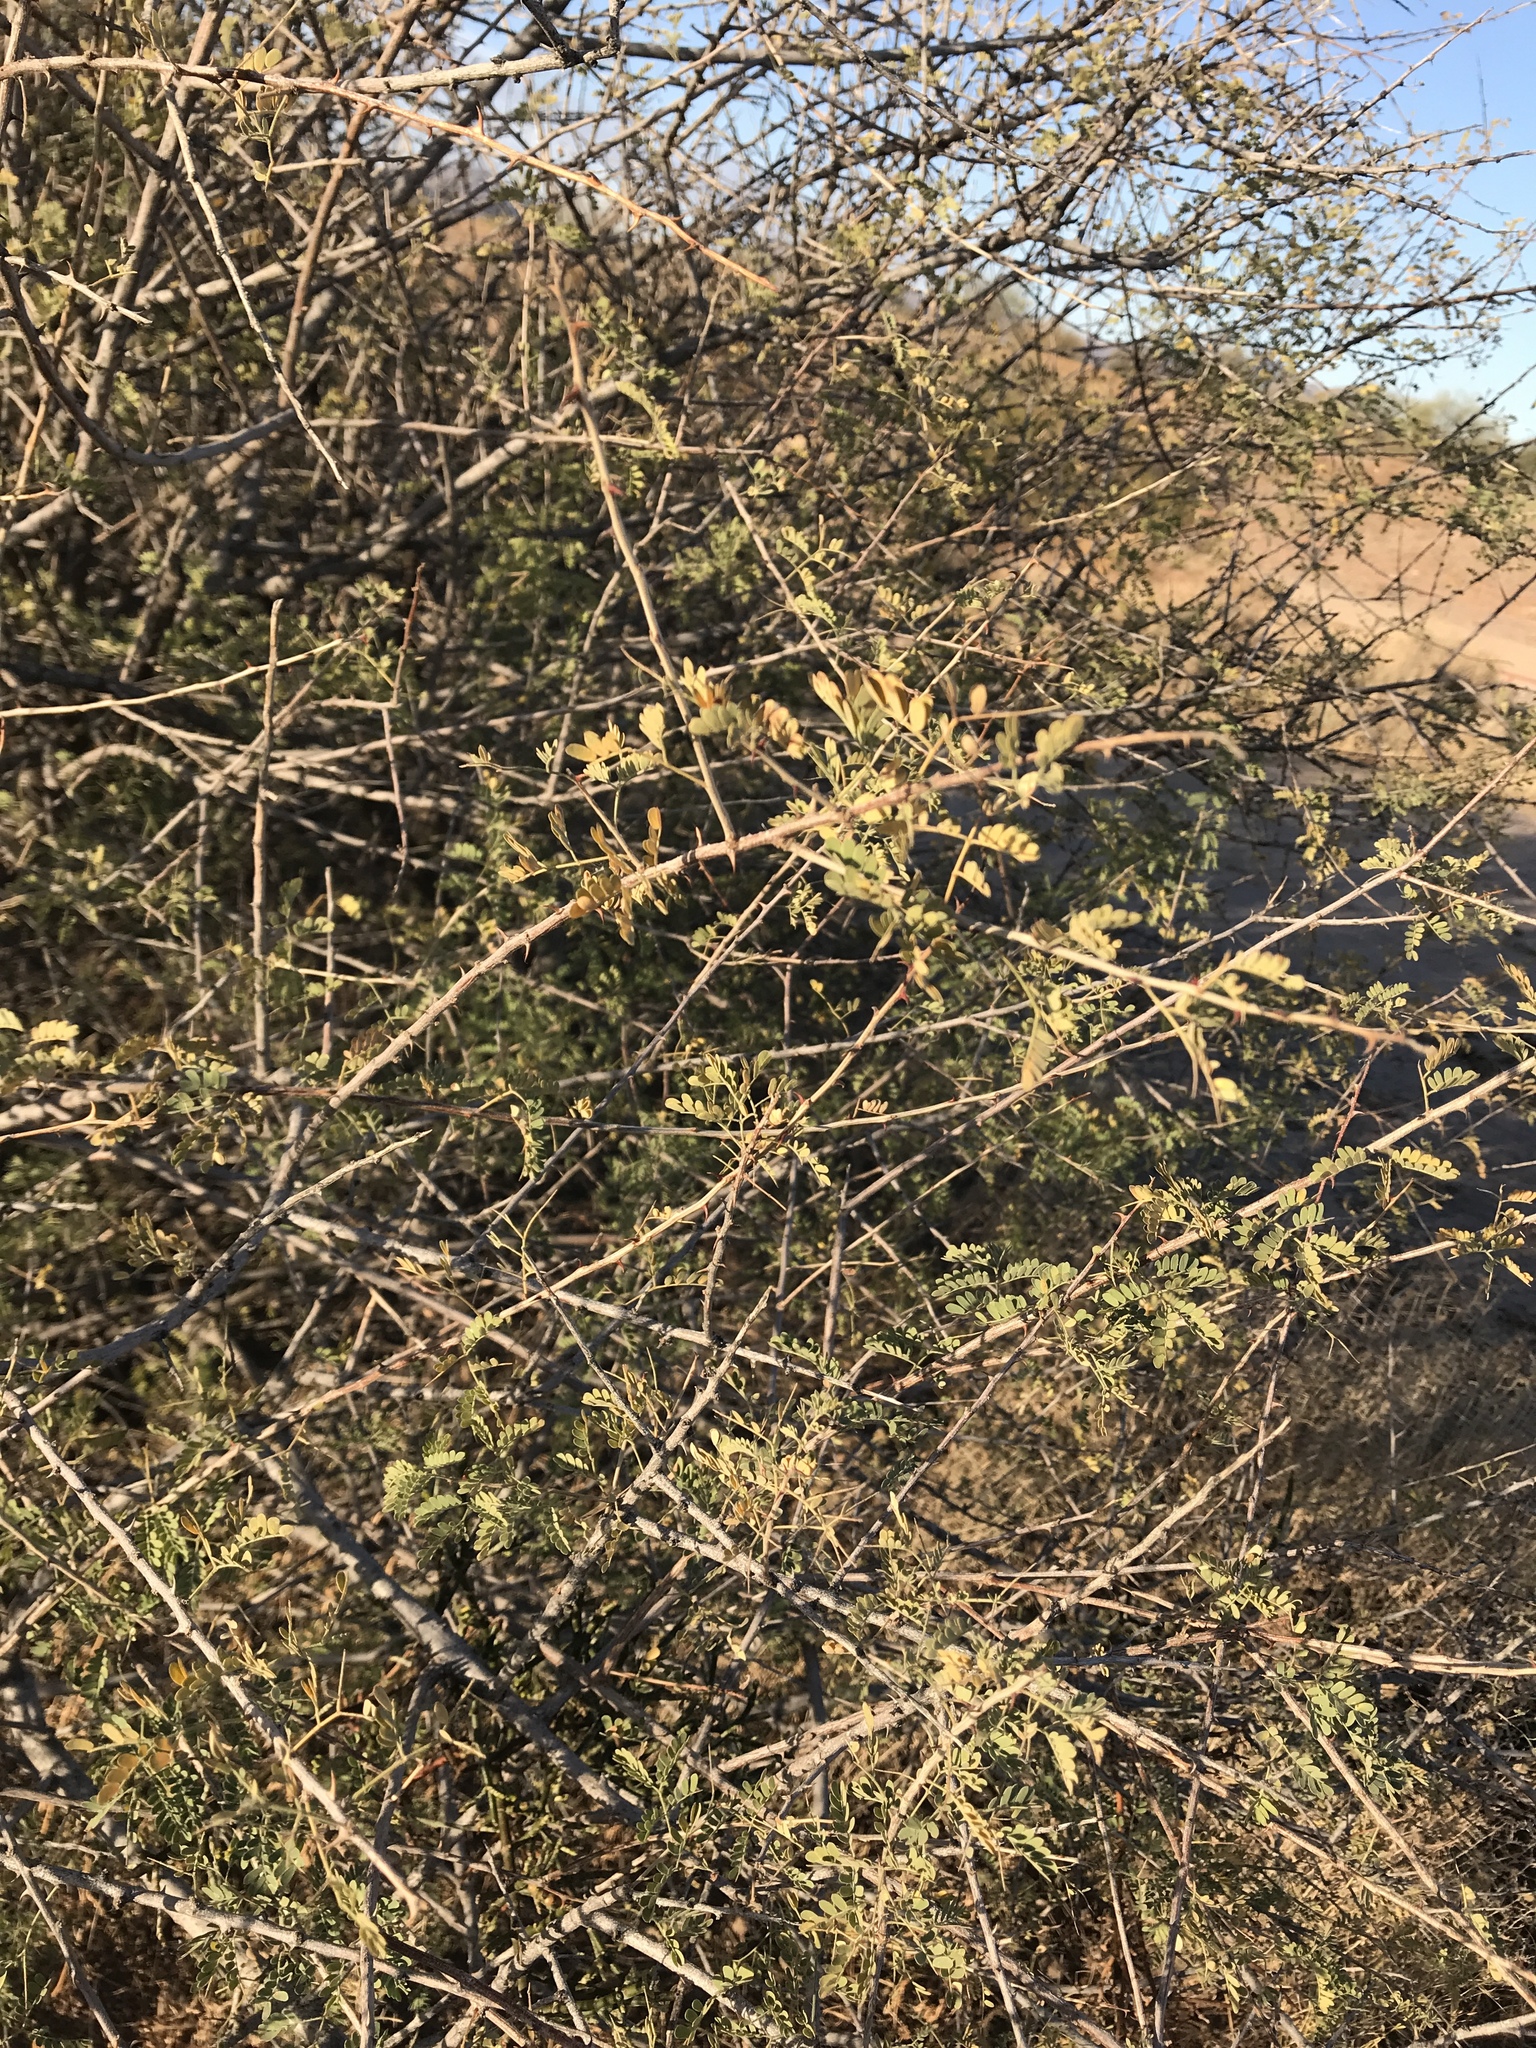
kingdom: Plantae
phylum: Tracheophyta
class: Magnoliopsida
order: Fabales
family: Fabaceae
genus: Senegalia
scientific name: Senegalia greggii
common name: Texas-mimosa
